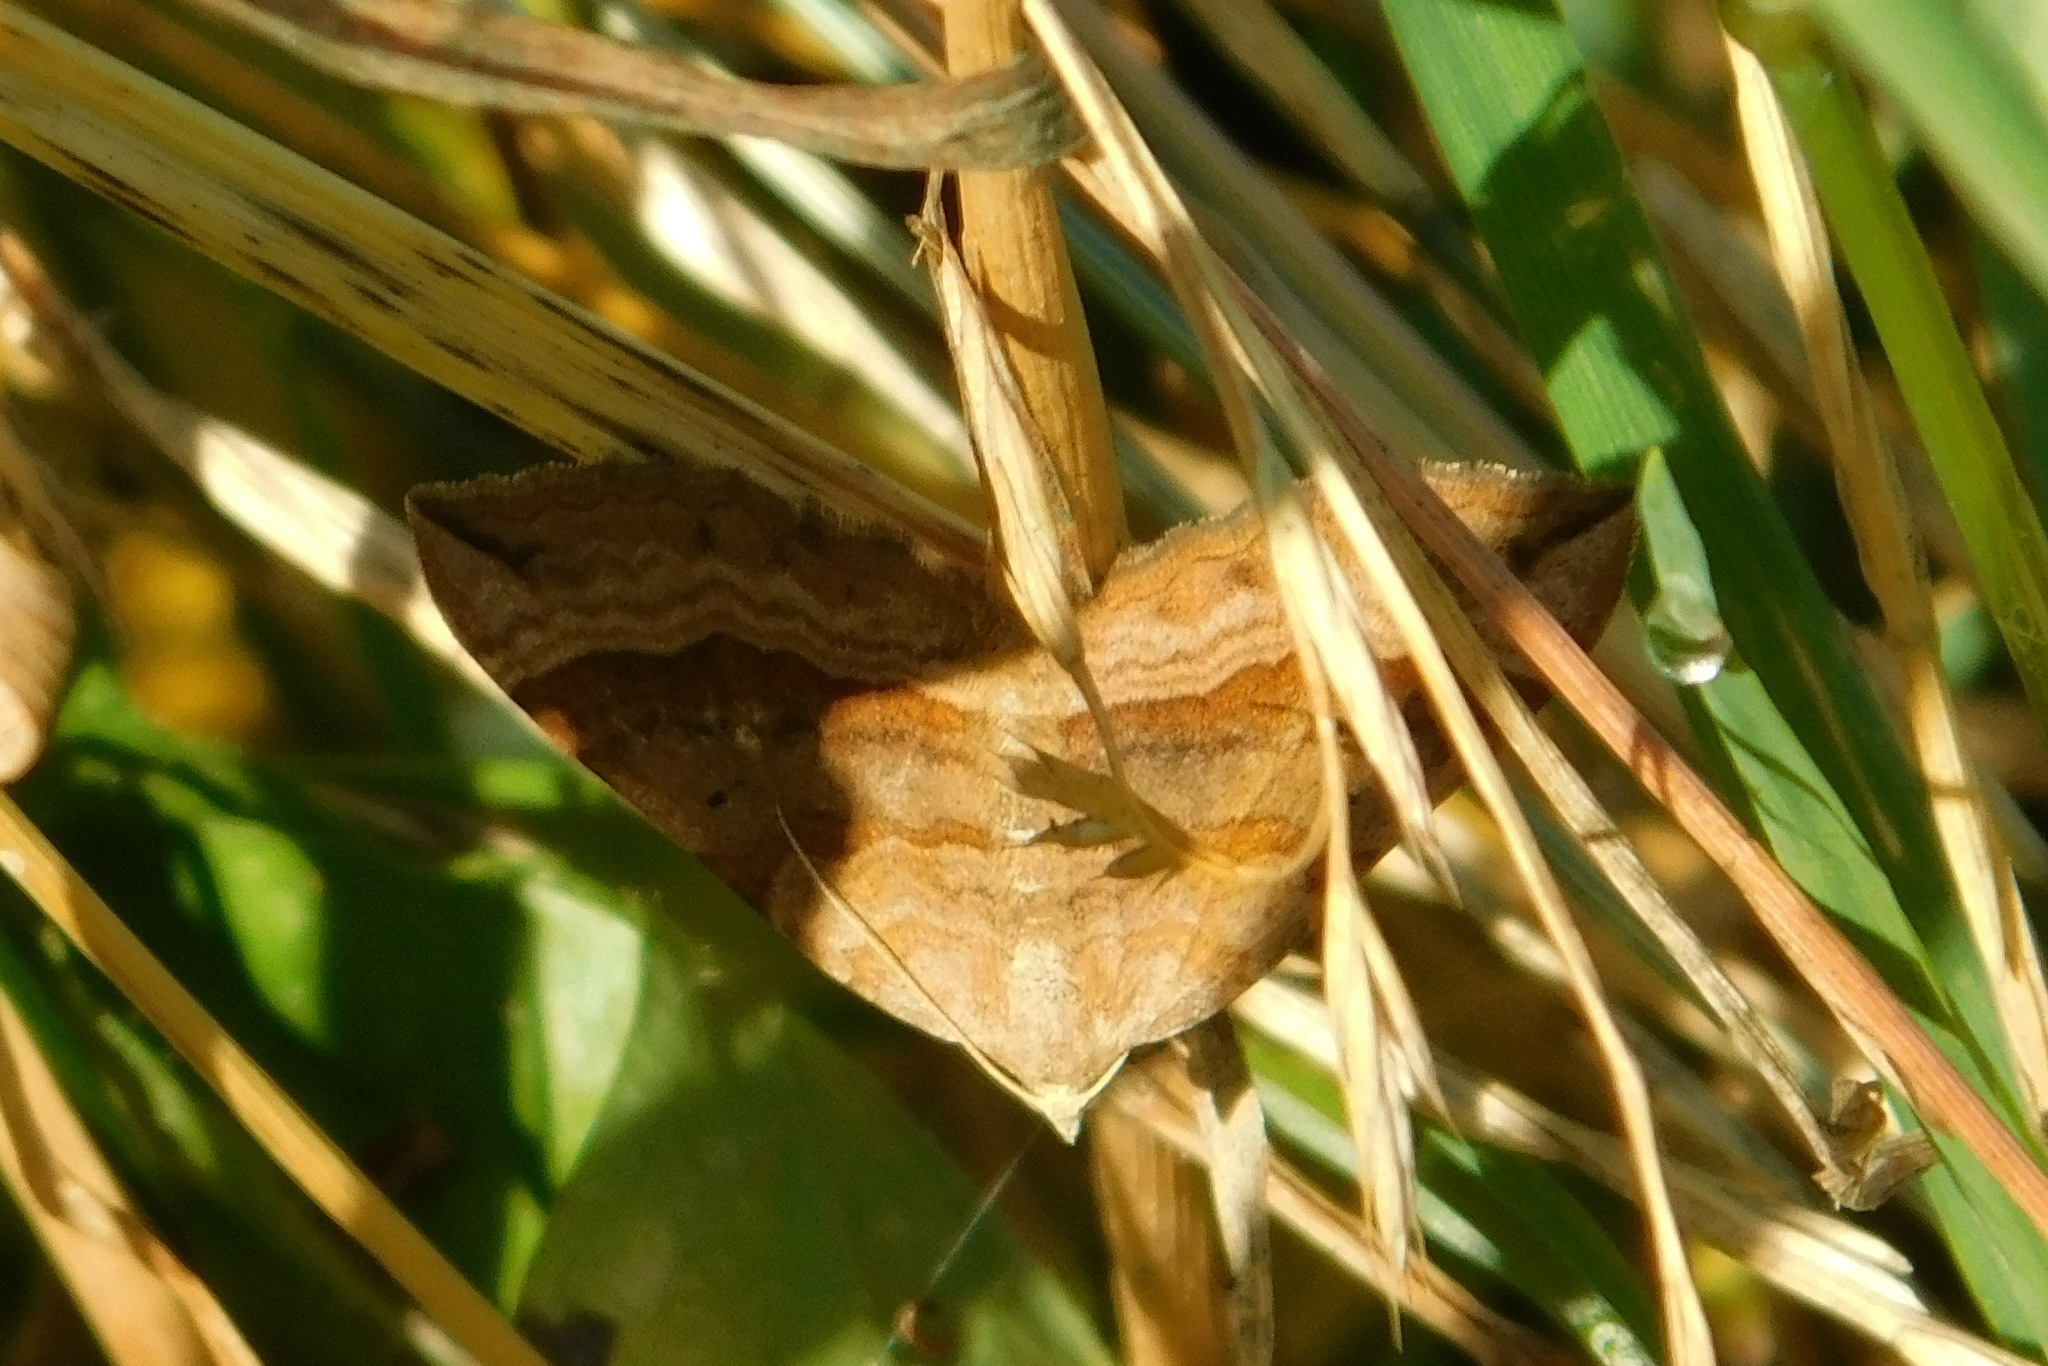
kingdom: Animalia
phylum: Arthropoda
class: Insecta
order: Lepidoptera
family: Geometridae
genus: Scotopteryx
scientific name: Scotopteryx chenopodiata
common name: Shaded broad-bar
